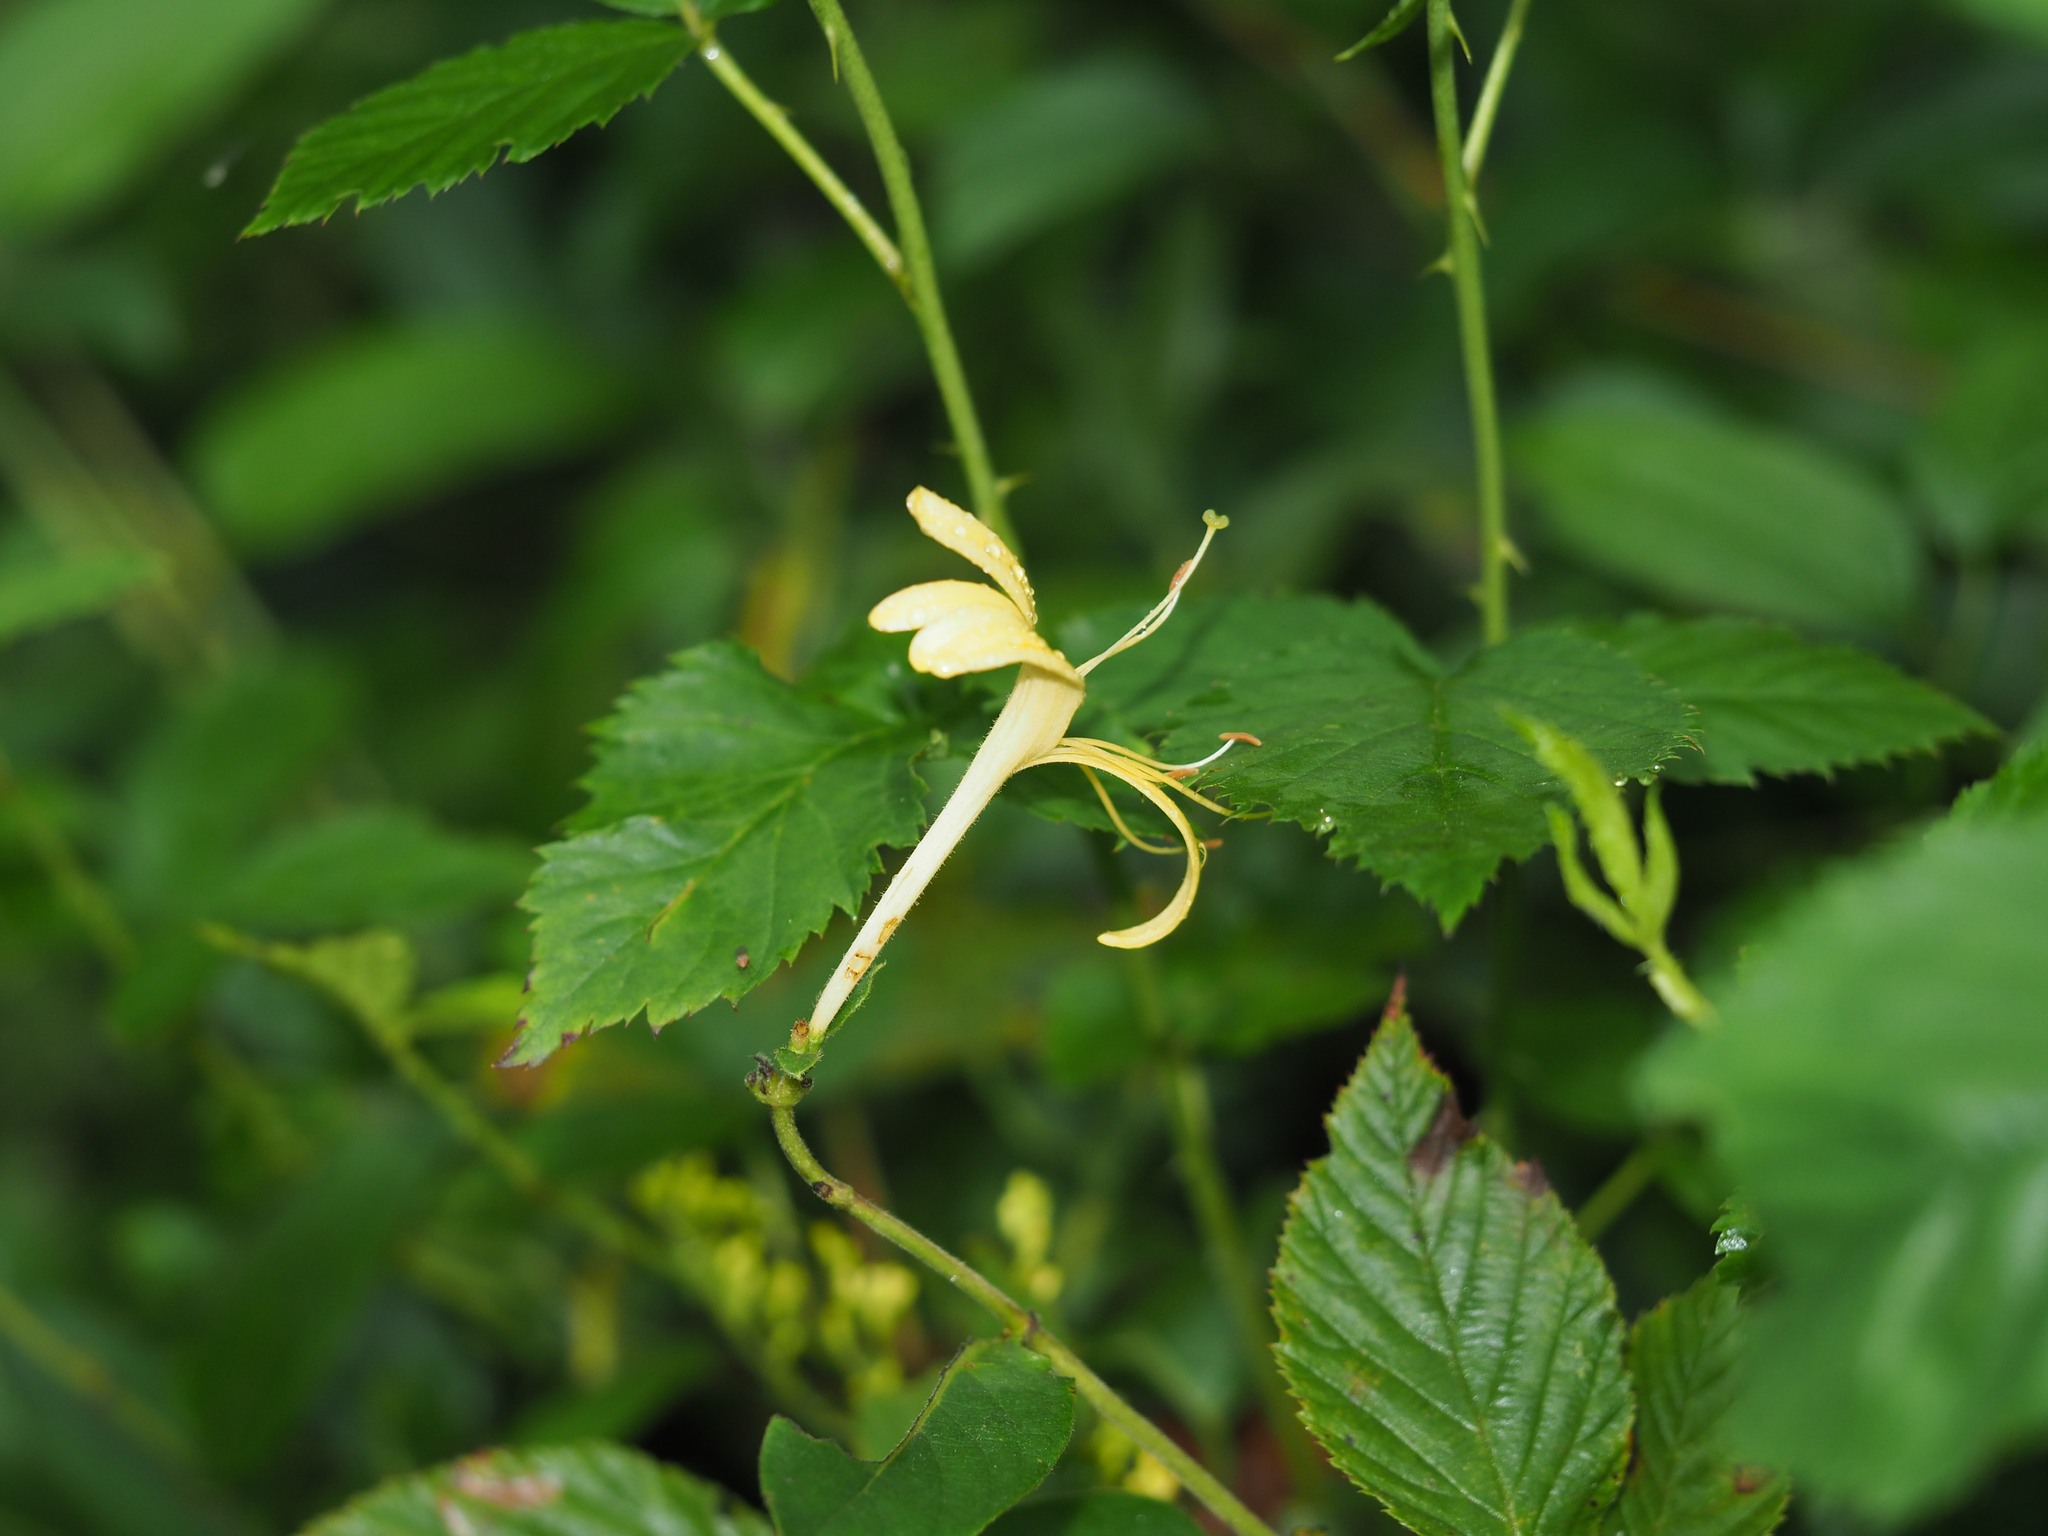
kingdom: Plantae
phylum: Tracheophyta
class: Magnoliopsida
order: Dipsacales
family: Caprifoliaceae
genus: Lonicera
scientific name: Lonicera japonica
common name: Japanese honeysuckle
